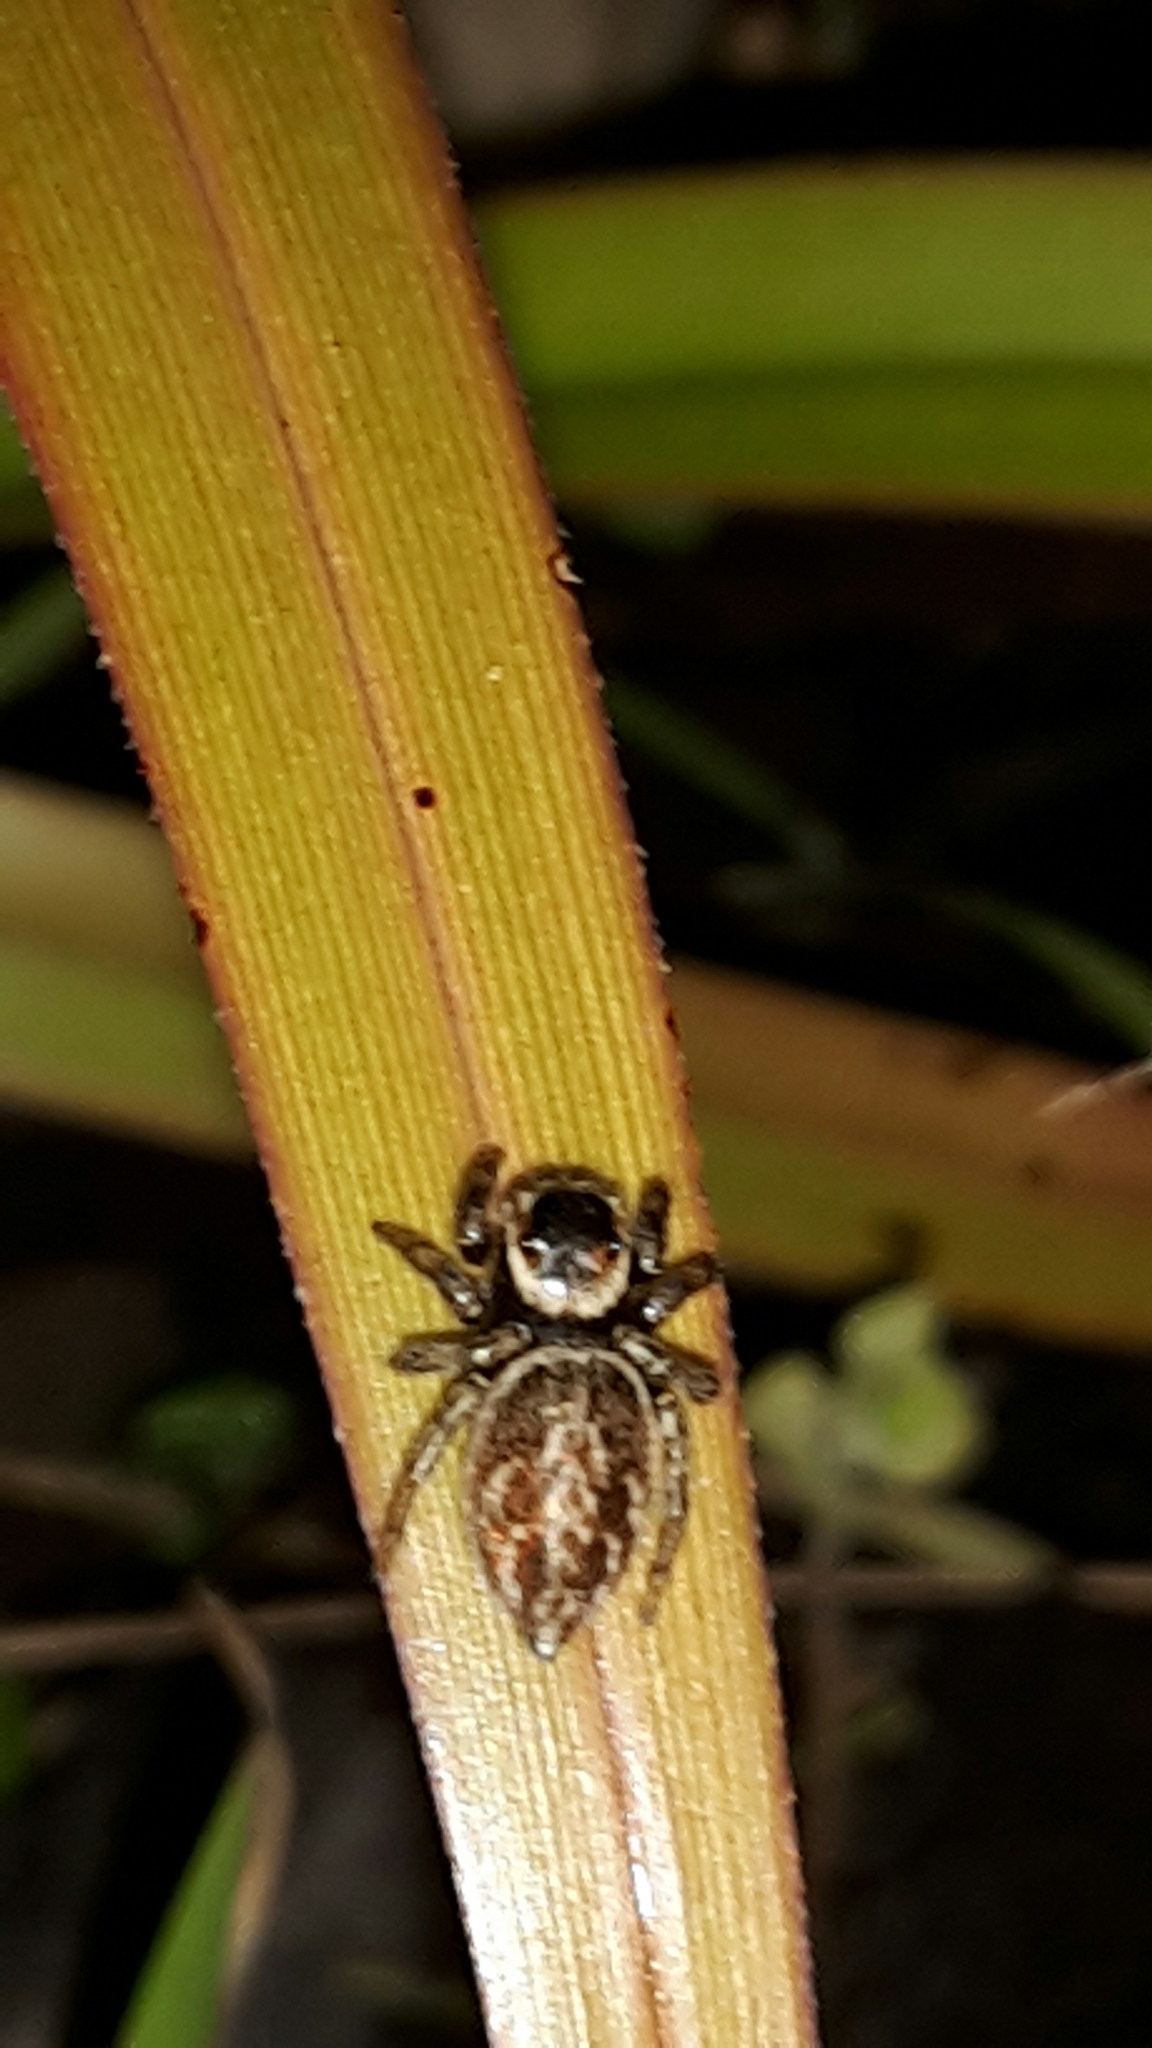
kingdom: Animalia
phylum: Arthropoda
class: Arachnida
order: Araneae
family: Salticidae
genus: Maratus
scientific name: Maratus griseus
